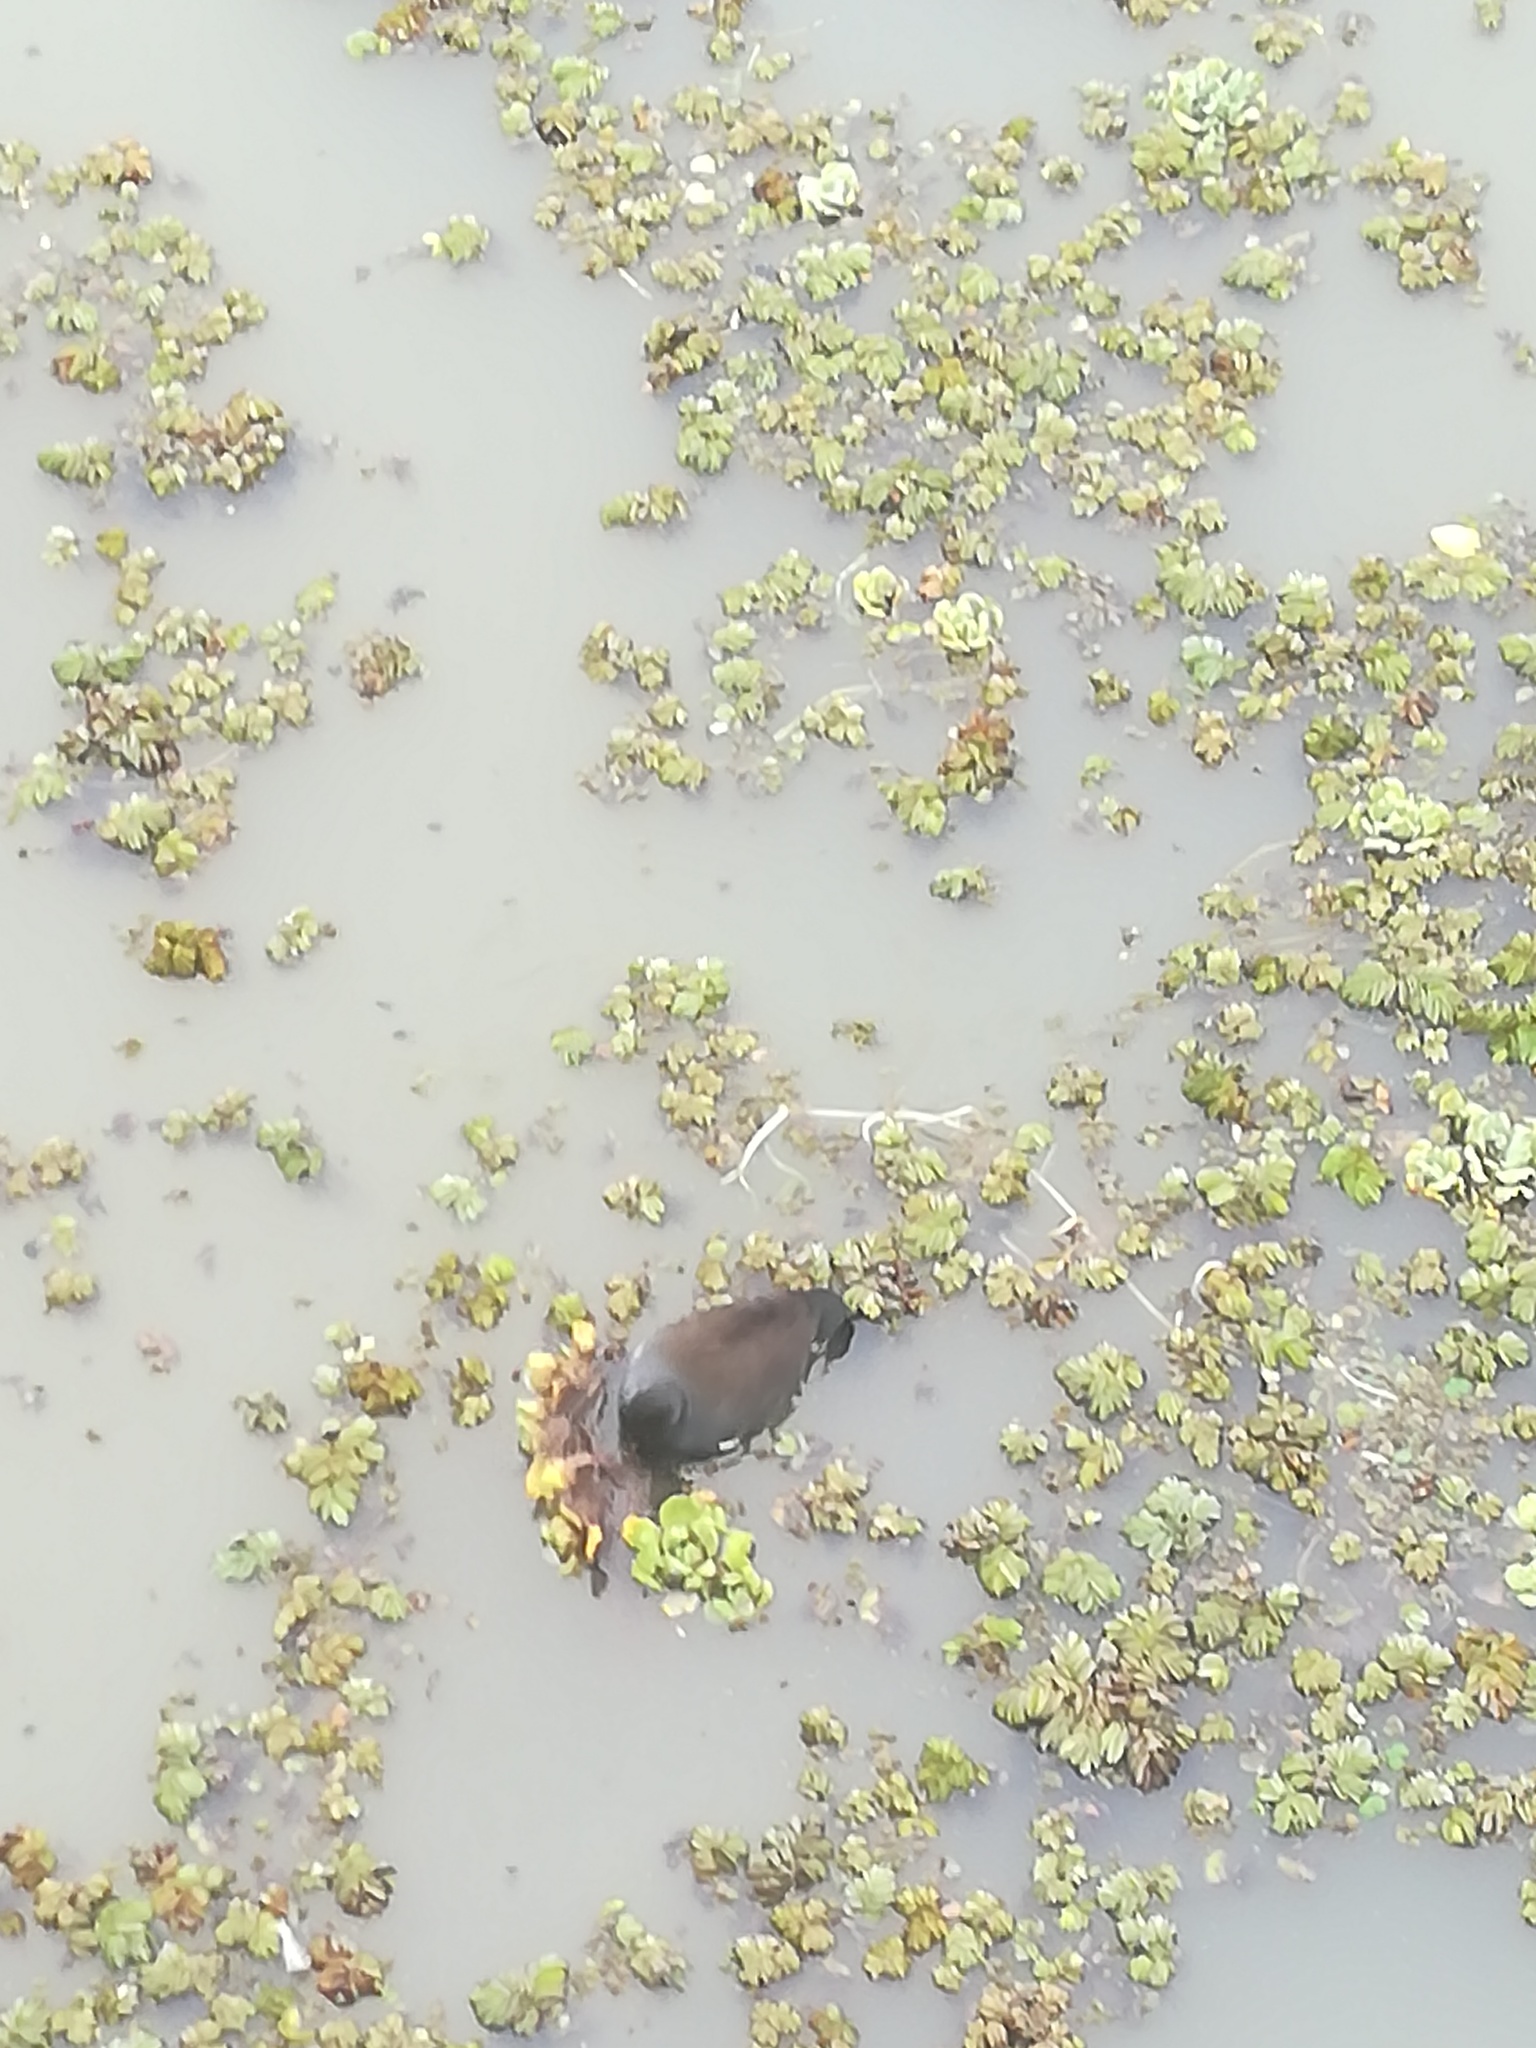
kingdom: Animalia
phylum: Chordata
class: Aves
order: Gruiformes
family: Rallidae
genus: Gallinula
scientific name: Gallinula chloropus
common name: Common moorhen
